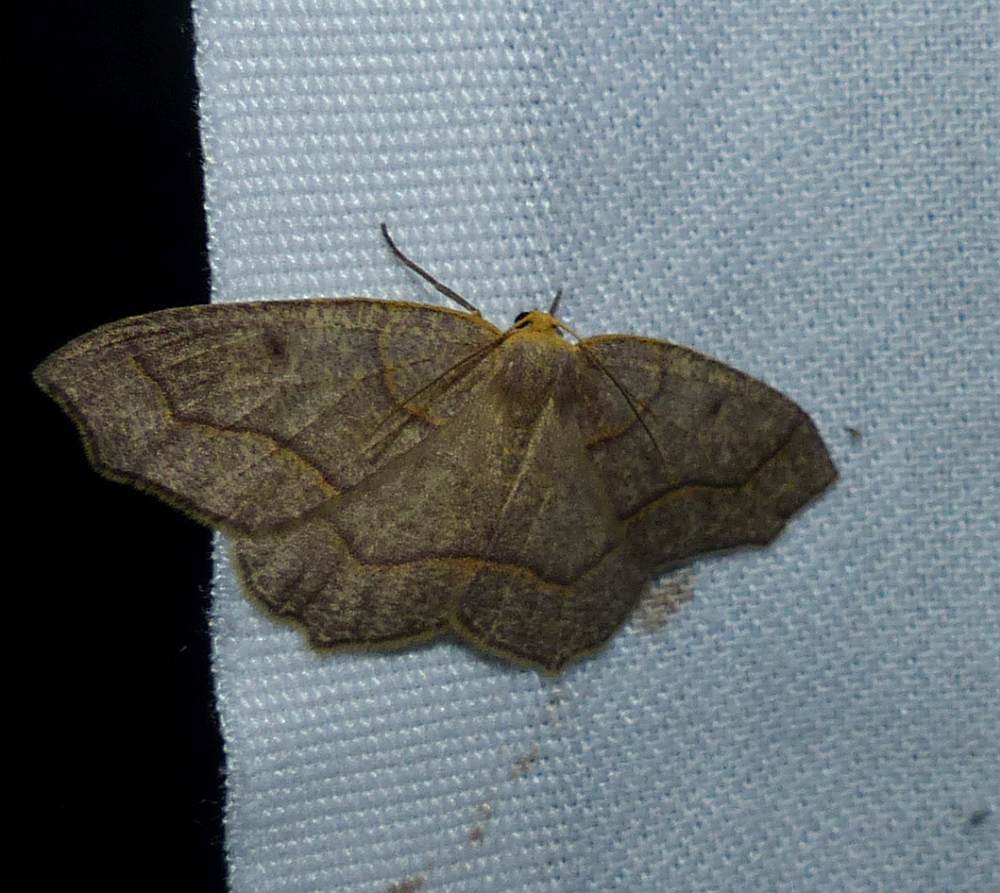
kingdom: Animalia
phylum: Arthropoda
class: Insecta
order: Lepidoptera
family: Geometridae
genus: Lambdina
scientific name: Lambdina fiscellaria
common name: Hemlock looper
